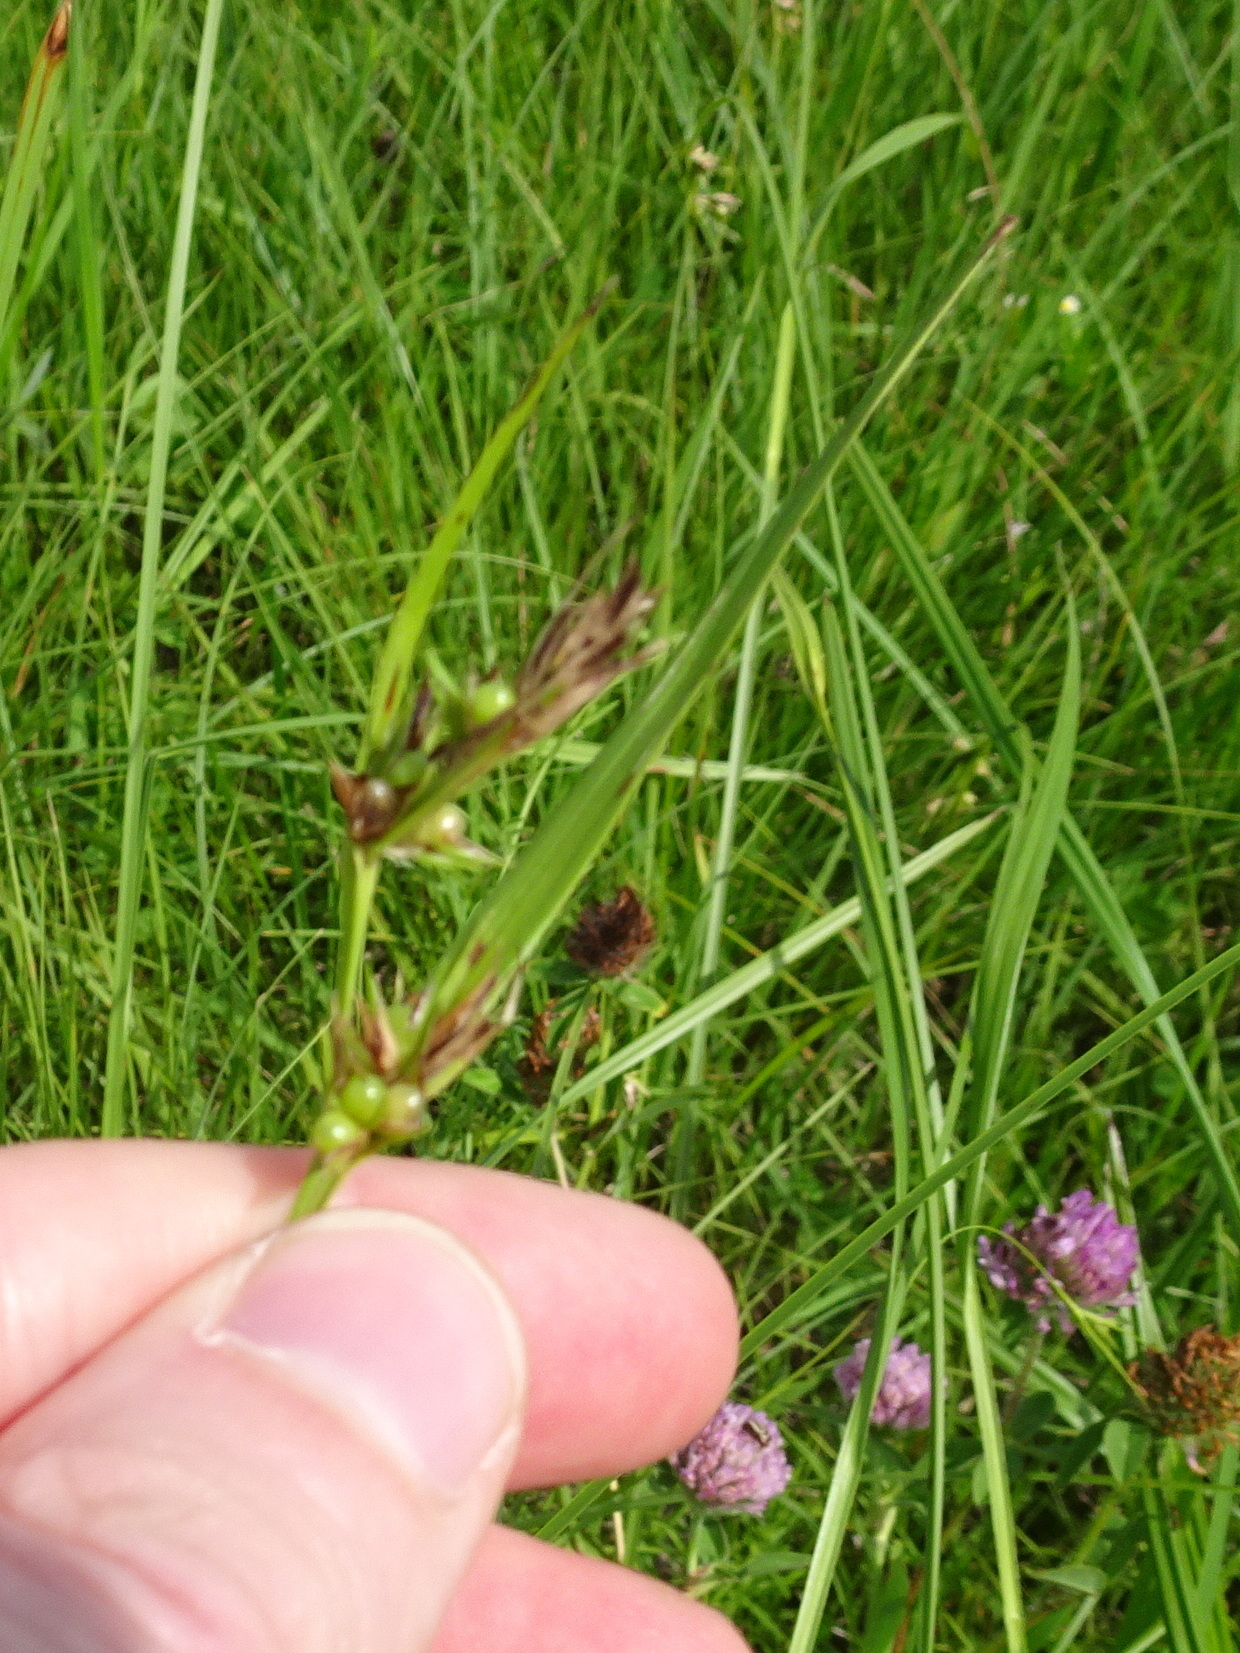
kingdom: Plantae
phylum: Tracheophyta
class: Liliopsida
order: Poales
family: Cyperaceae
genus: Scleria
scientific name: Scleria triglomerata
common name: Whip nutrush
